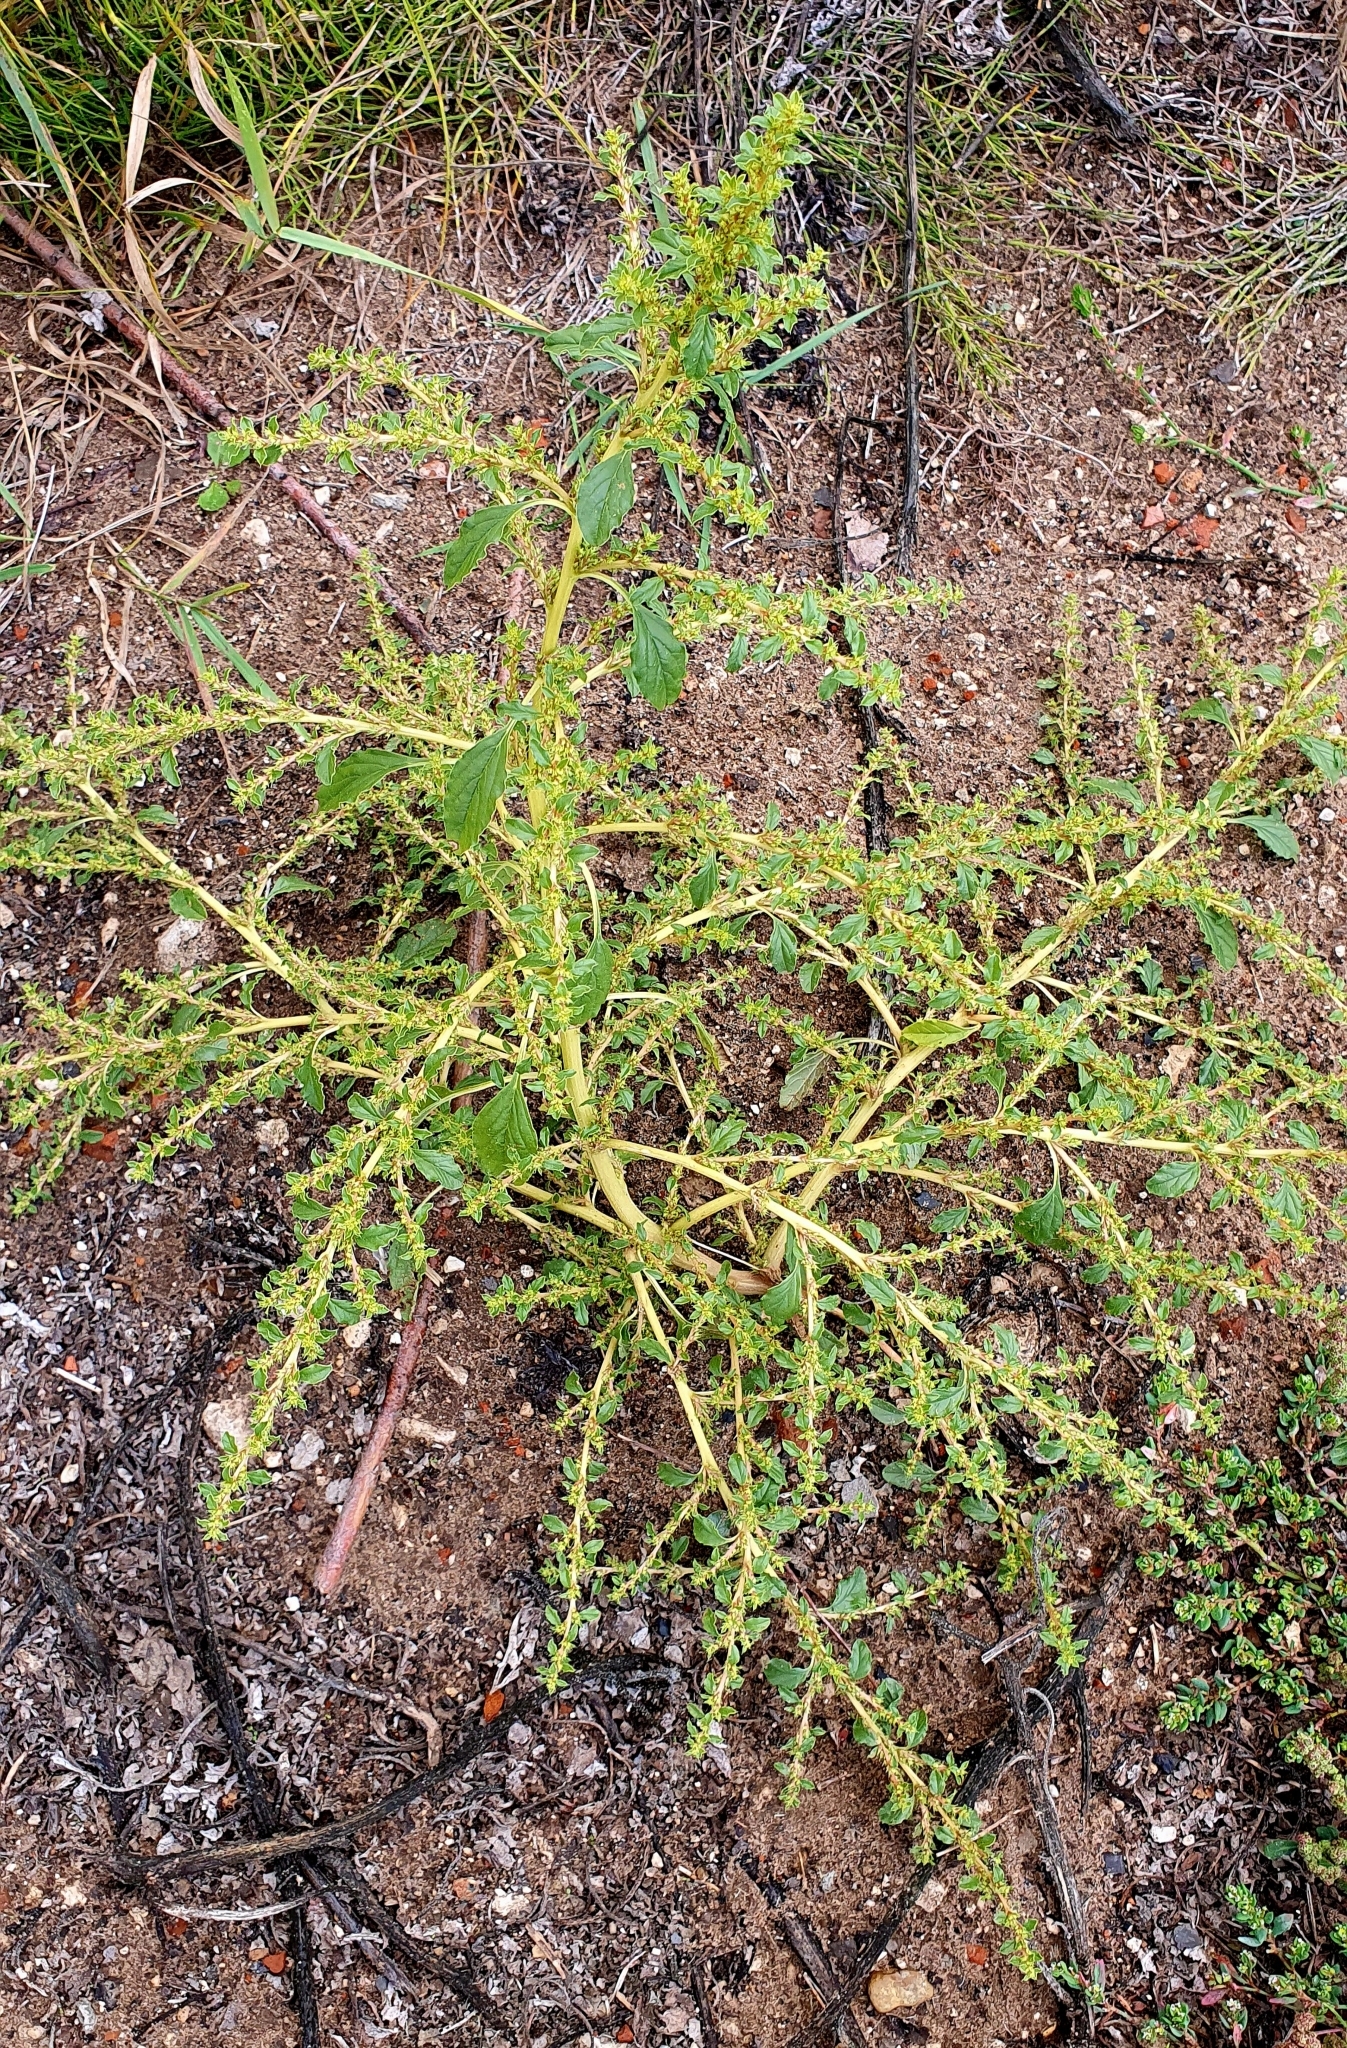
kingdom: Plantae
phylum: Tracheophyta
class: Magnoliopsida
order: Caryophyllales
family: Amaranthaceae
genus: Amaranthus
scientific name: Amaranthus albus
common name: White pigweed
